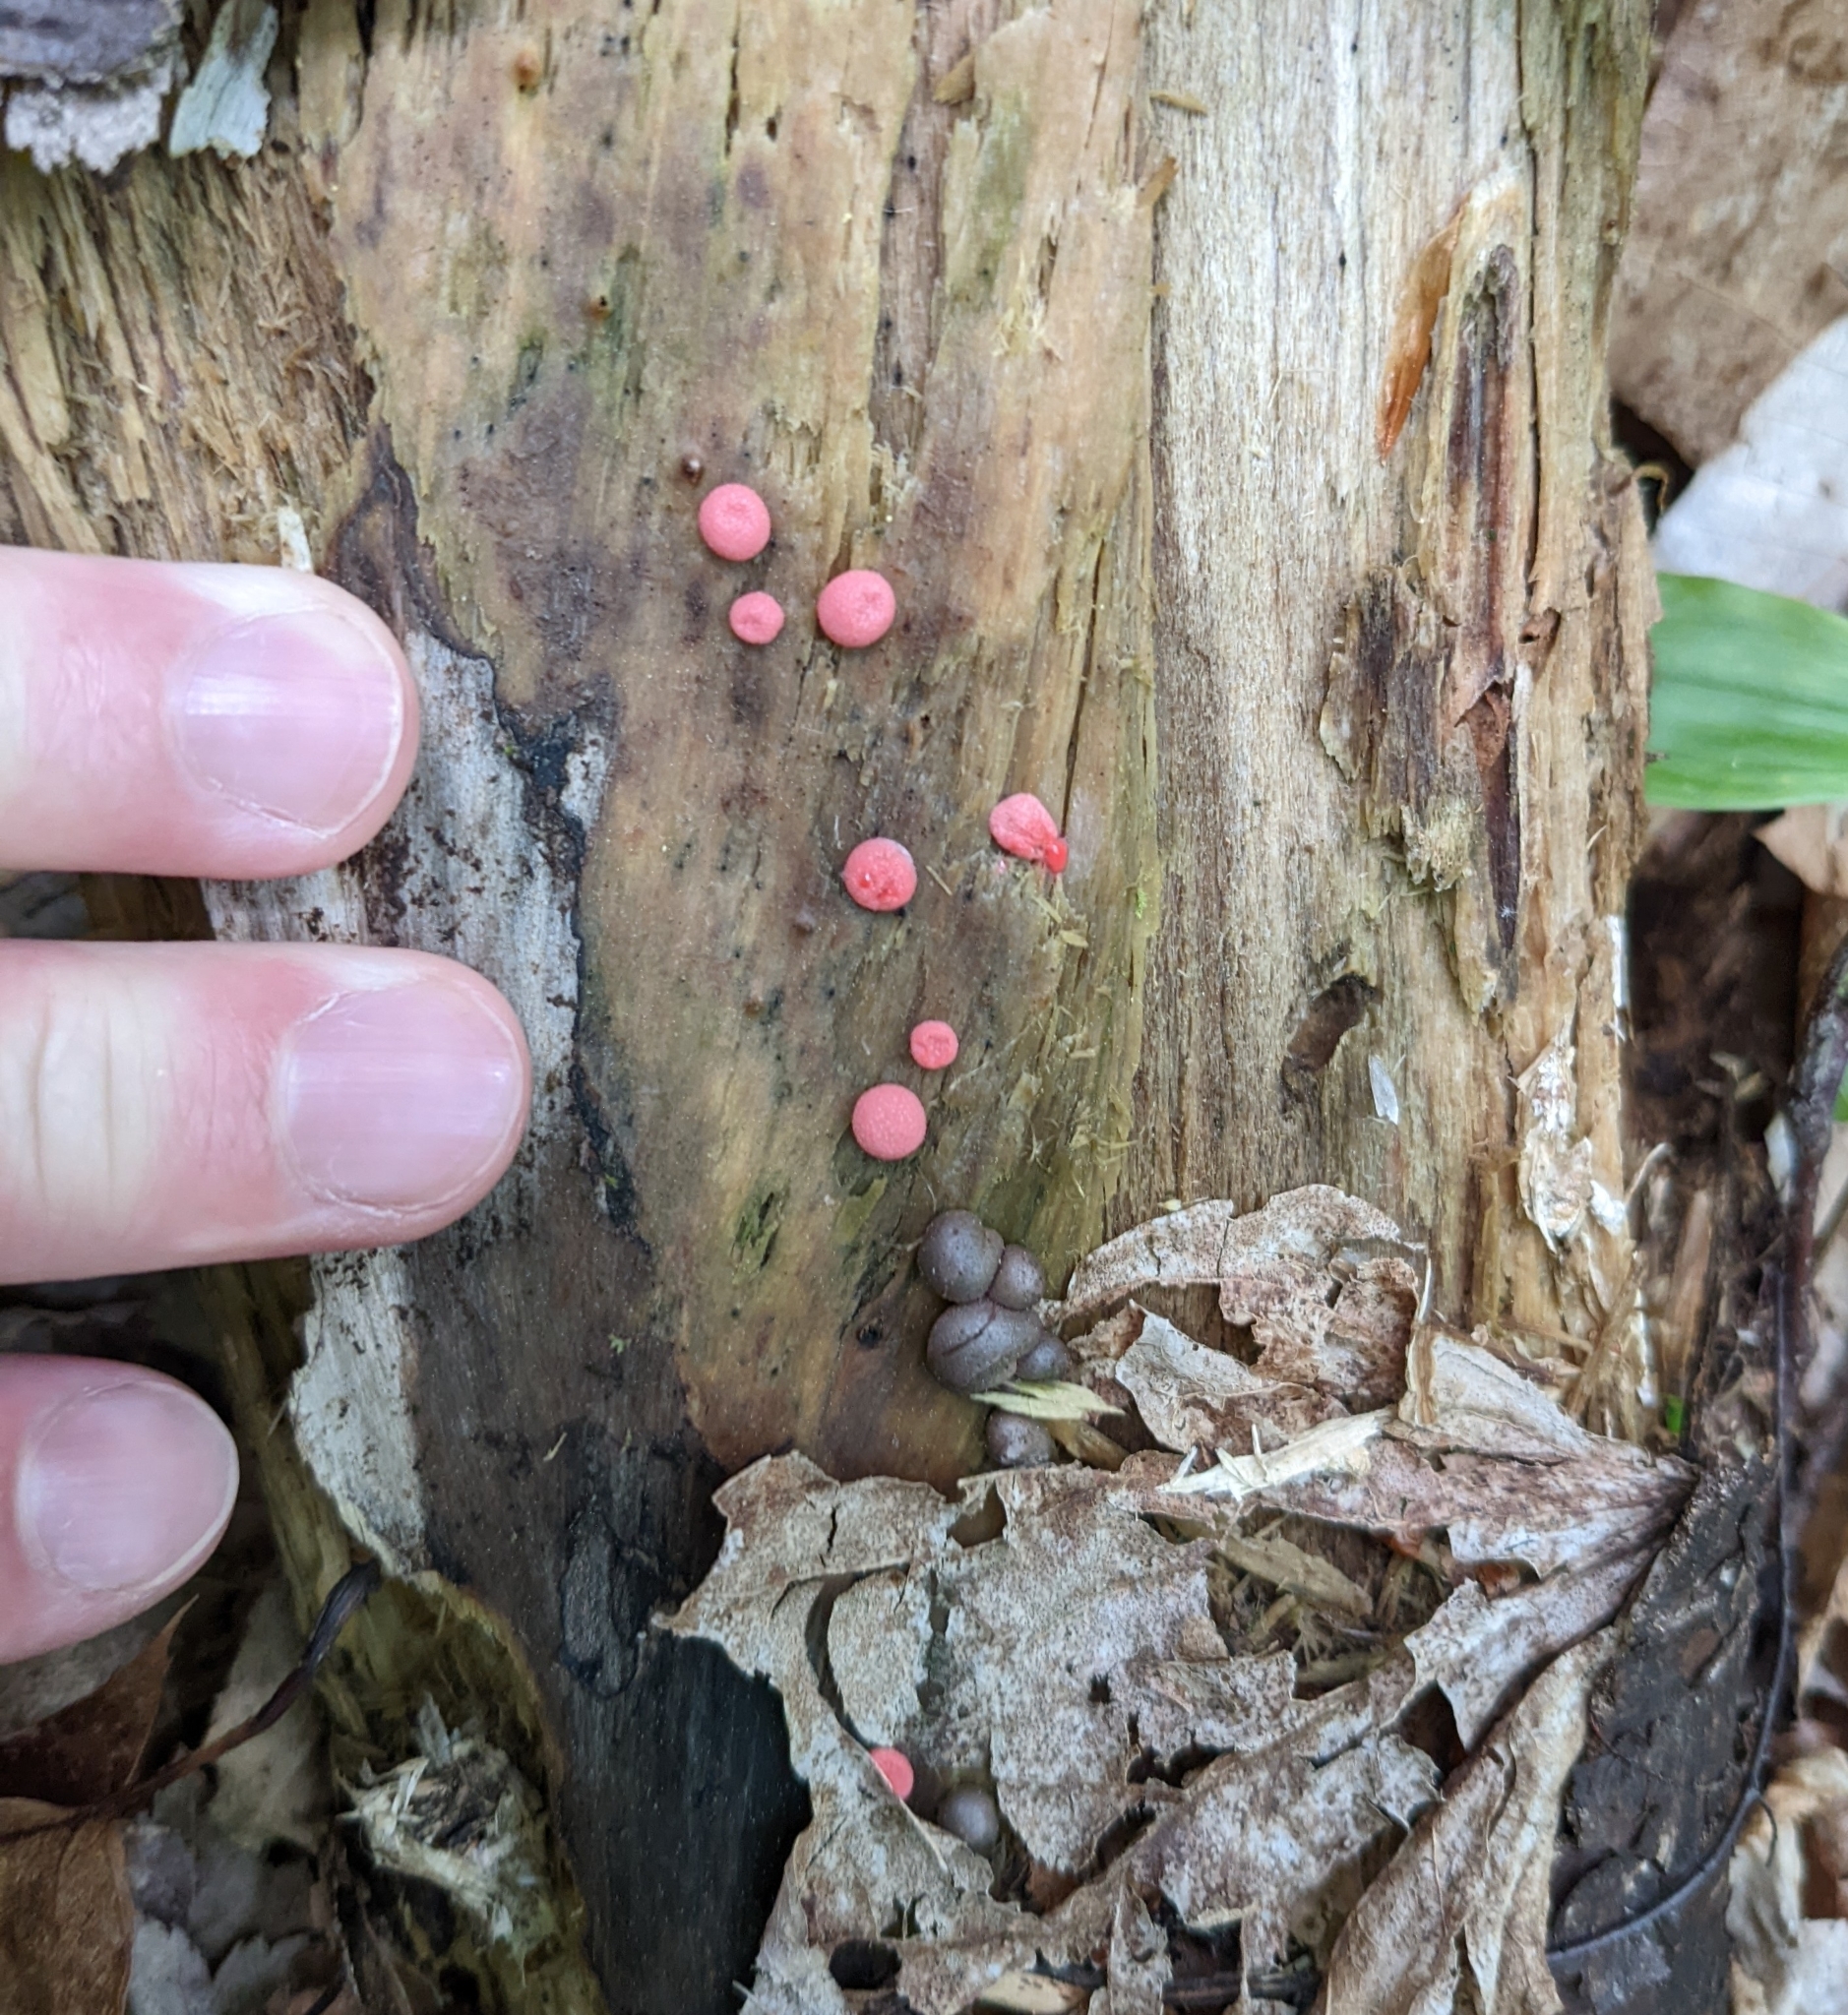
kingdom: Protozoa
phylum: Mycetozoa
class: Myxomycetes
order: Cribrariales
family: Tubiferaceae
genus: Lycogala
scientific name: Lycogala epidendrum
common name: Wolf's milk
